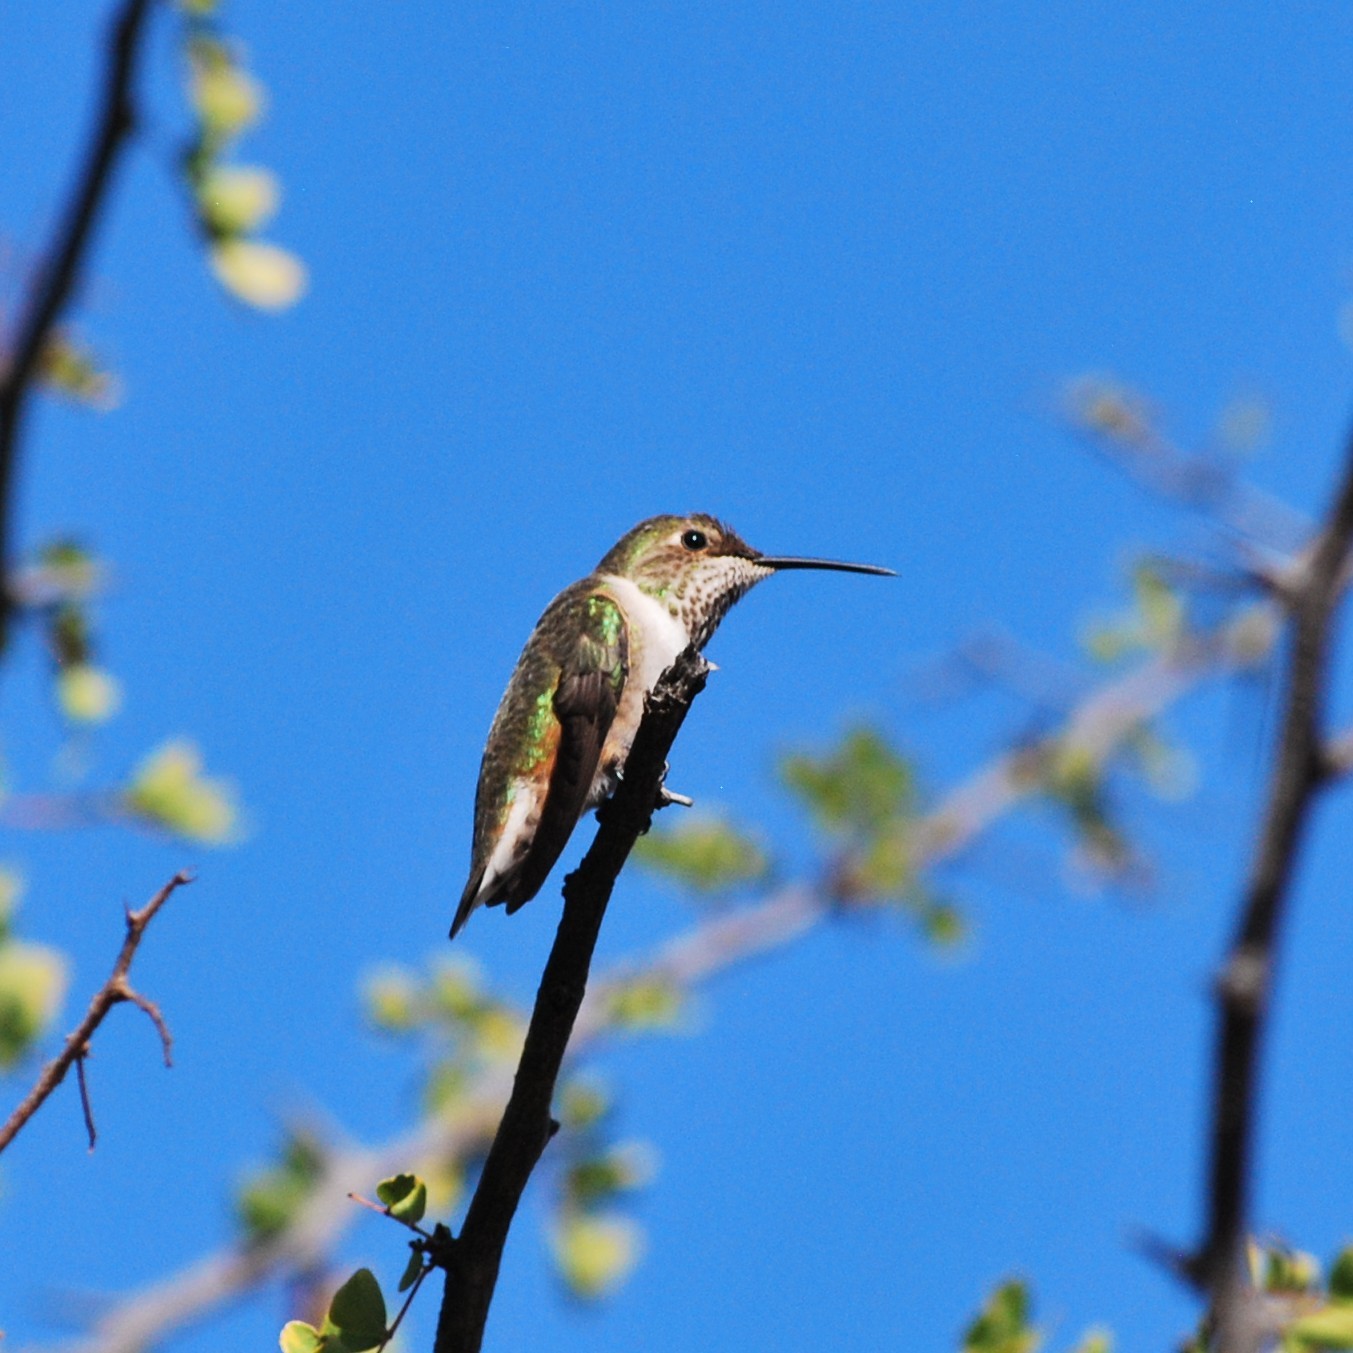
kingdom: Animalia
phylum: Chordata
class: Aves
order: Apodiformes
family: Trochilidae
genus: Selasphorus
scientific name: Selasphorus
